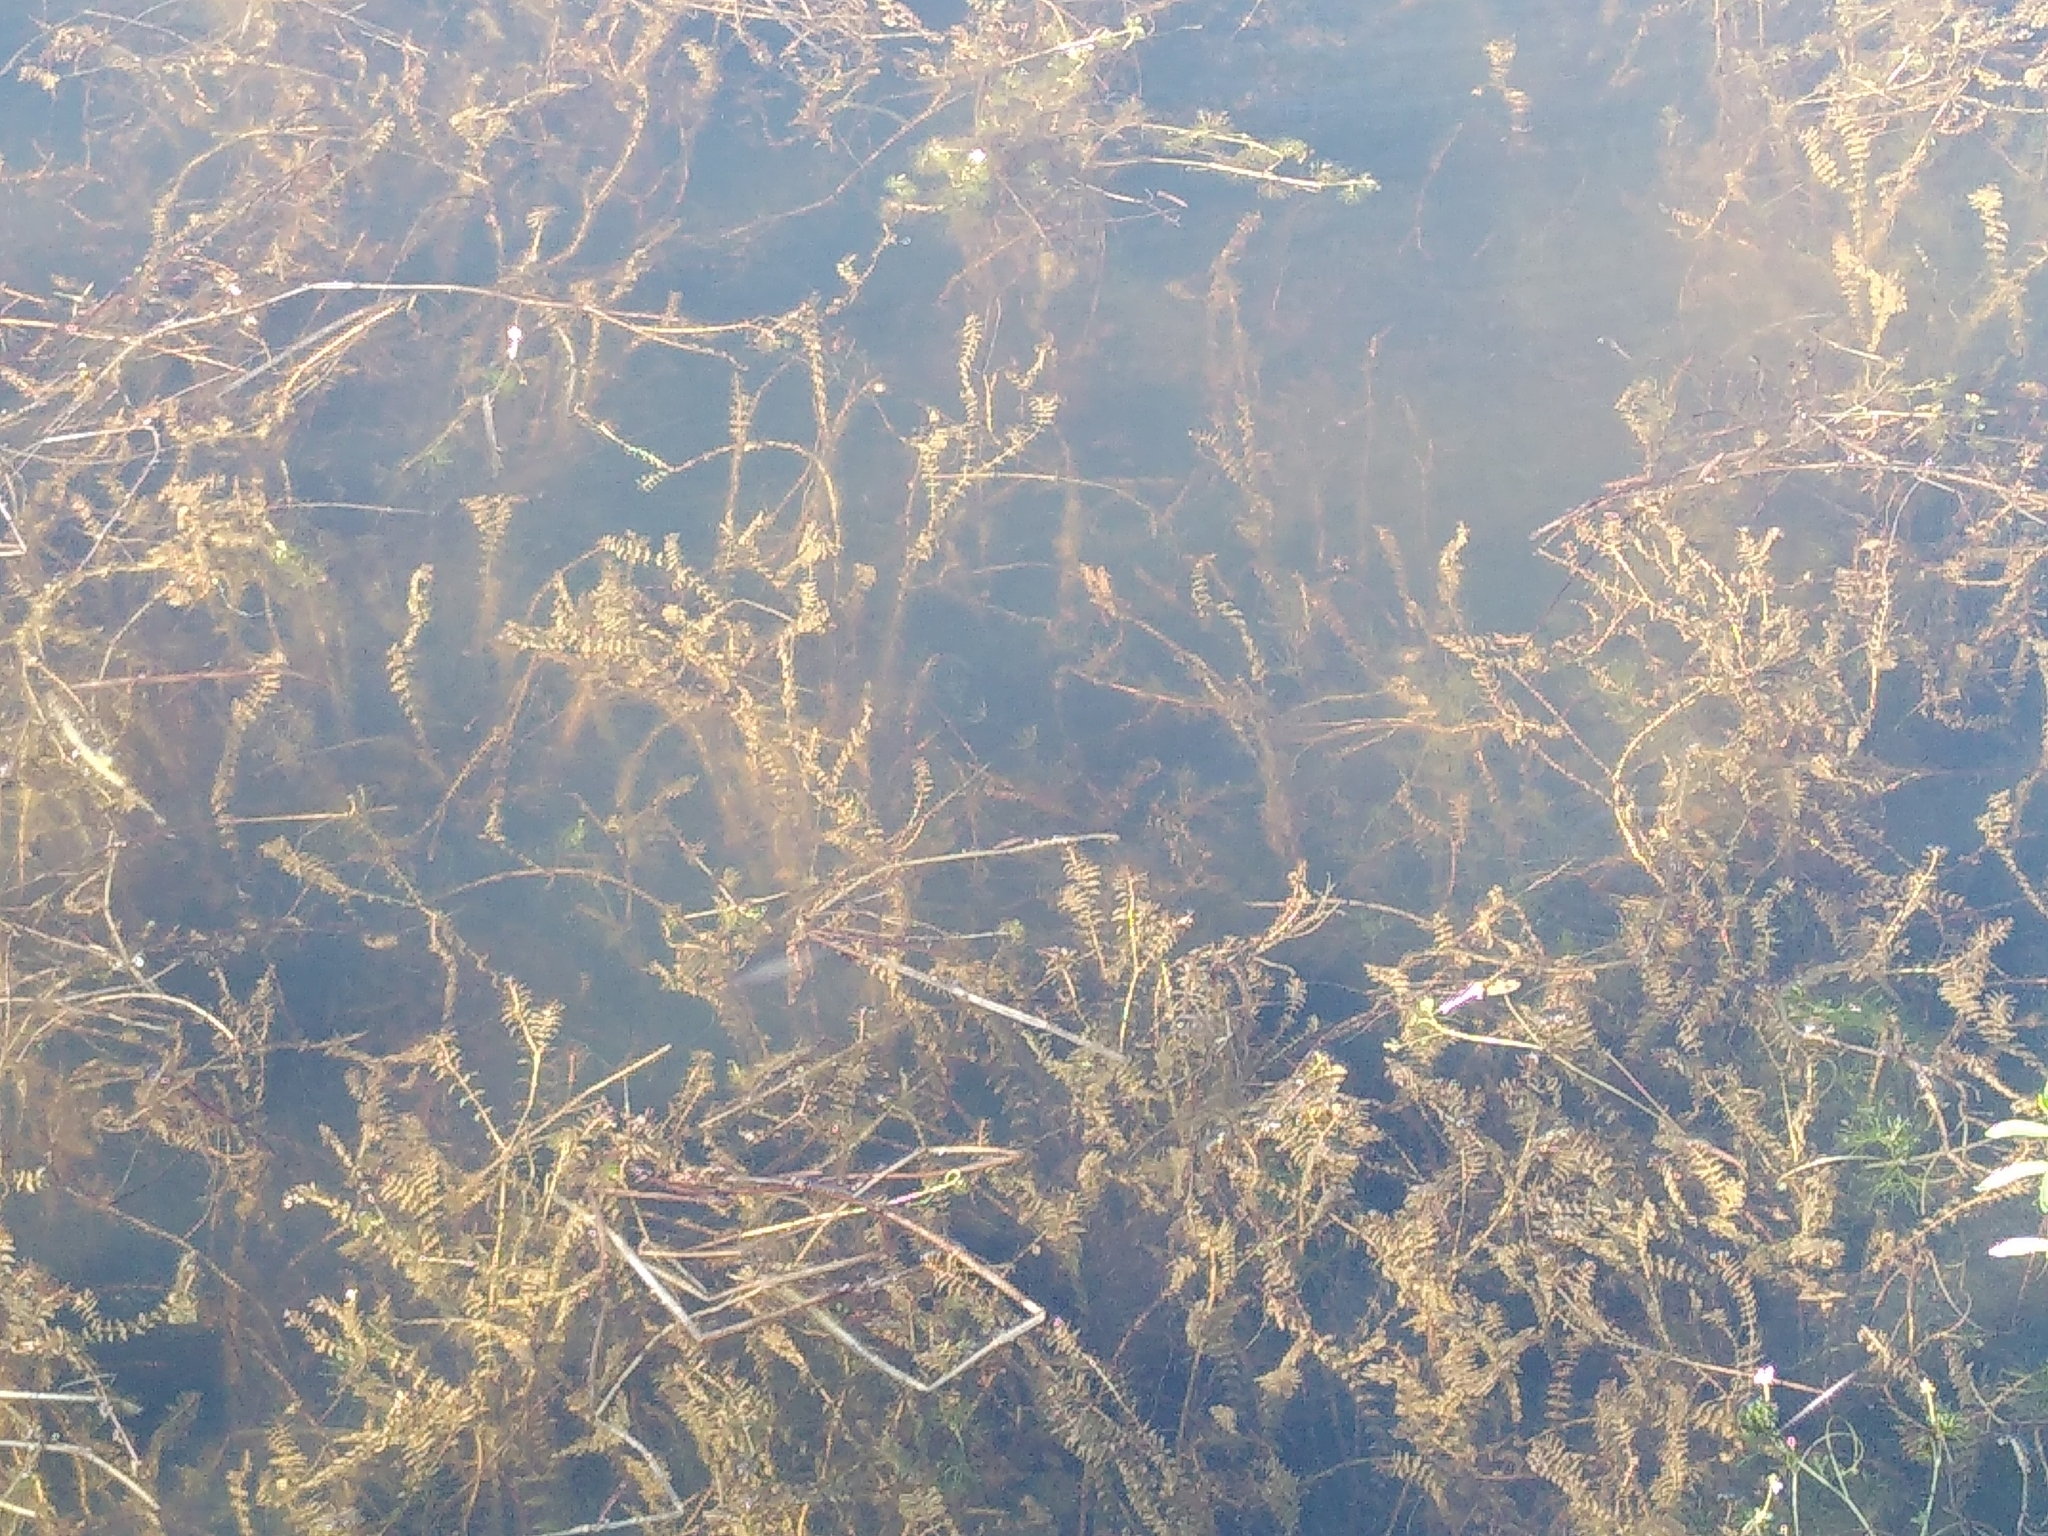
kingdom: Plantae
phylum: Tracheophyta
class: Liliopsida
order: Alismatales
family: Potamogetonaceae
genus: Groenlandia
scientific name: Groenlandia densa
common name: Opposite-leaved pondweed
